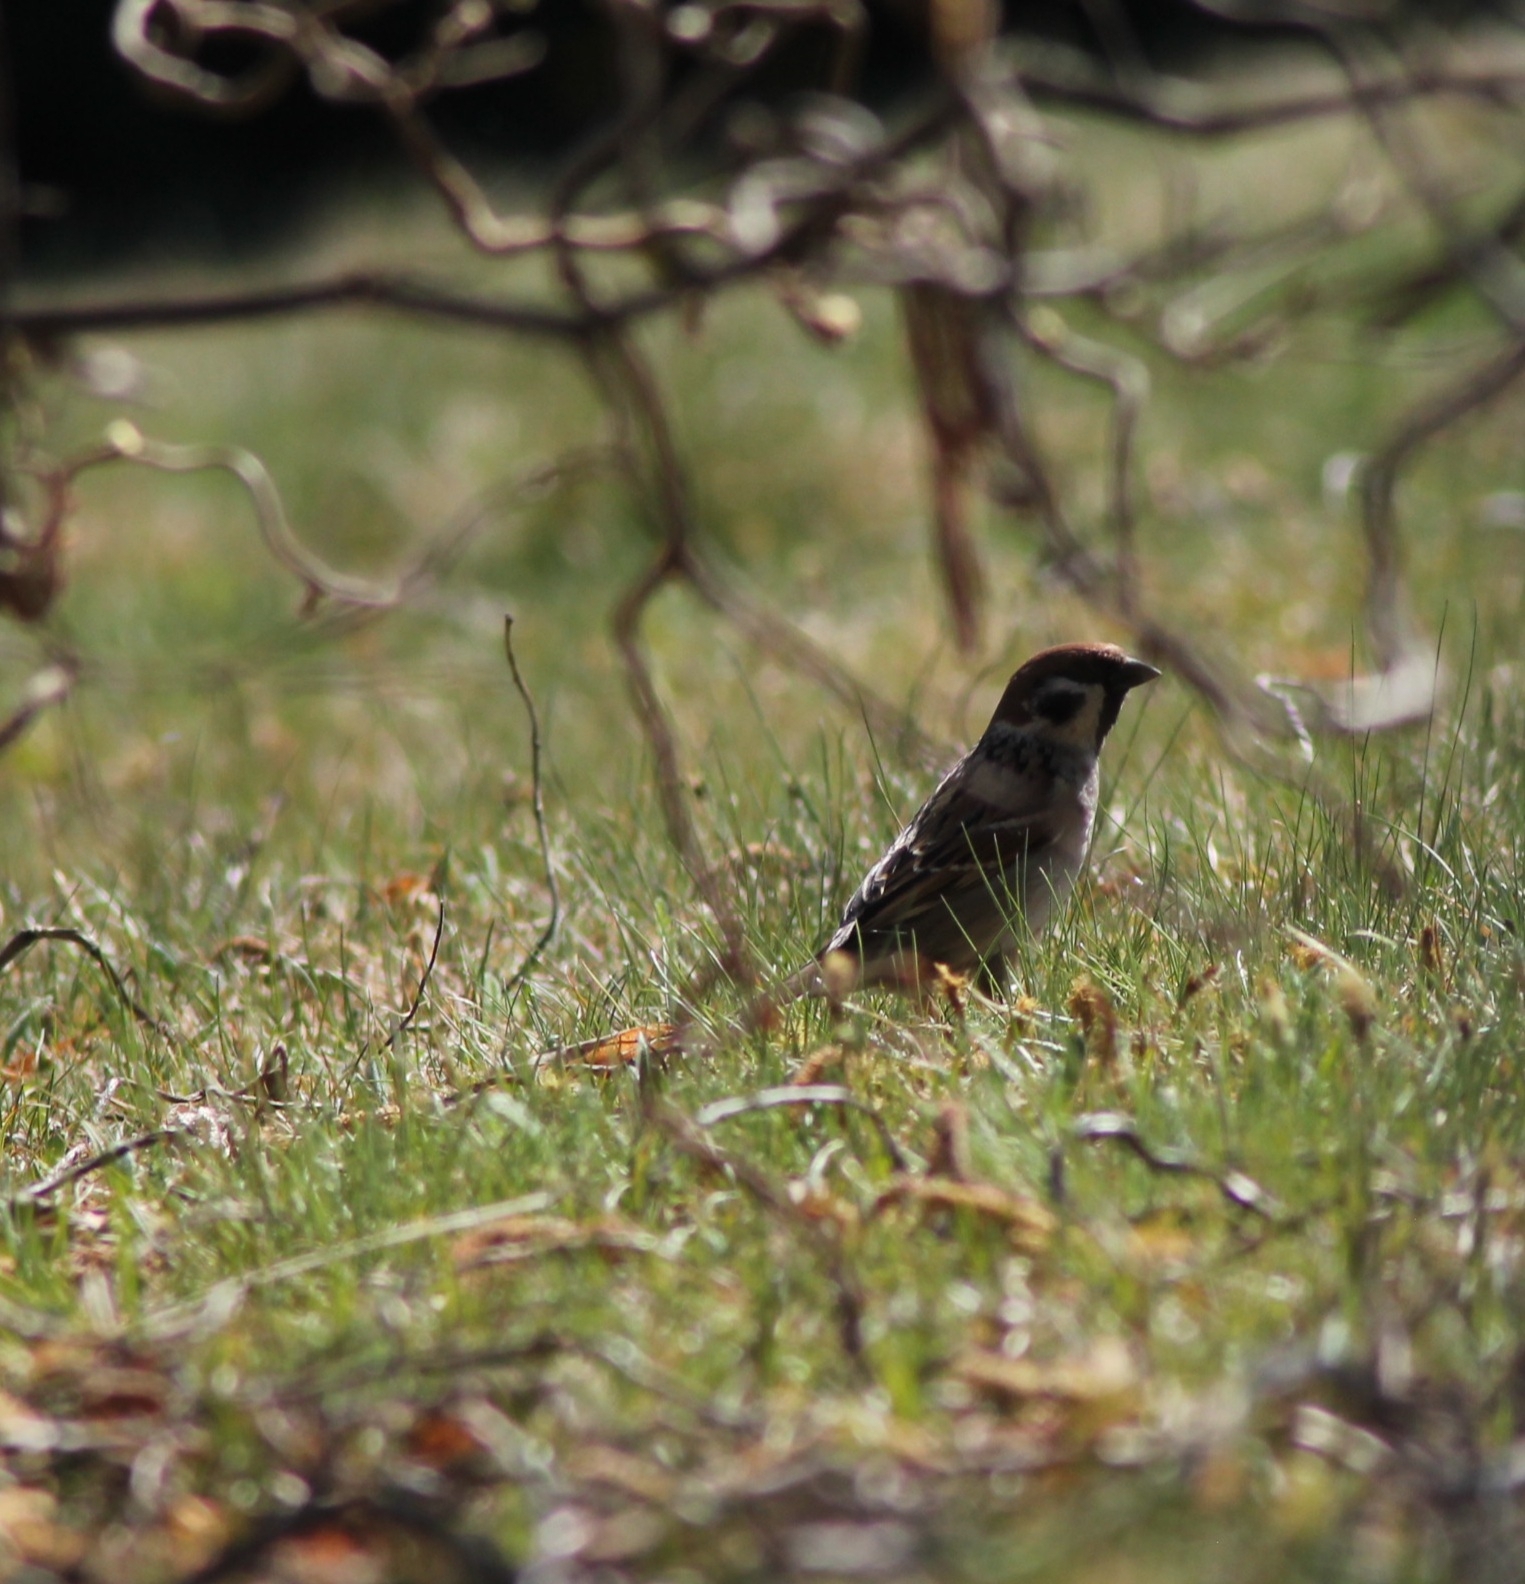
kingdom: Animalia
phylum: Chordata
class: Aves
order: Passeriformes
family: Passeridae
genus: Passer
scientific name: Passer montanus
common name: Eurasian tree sparrow
